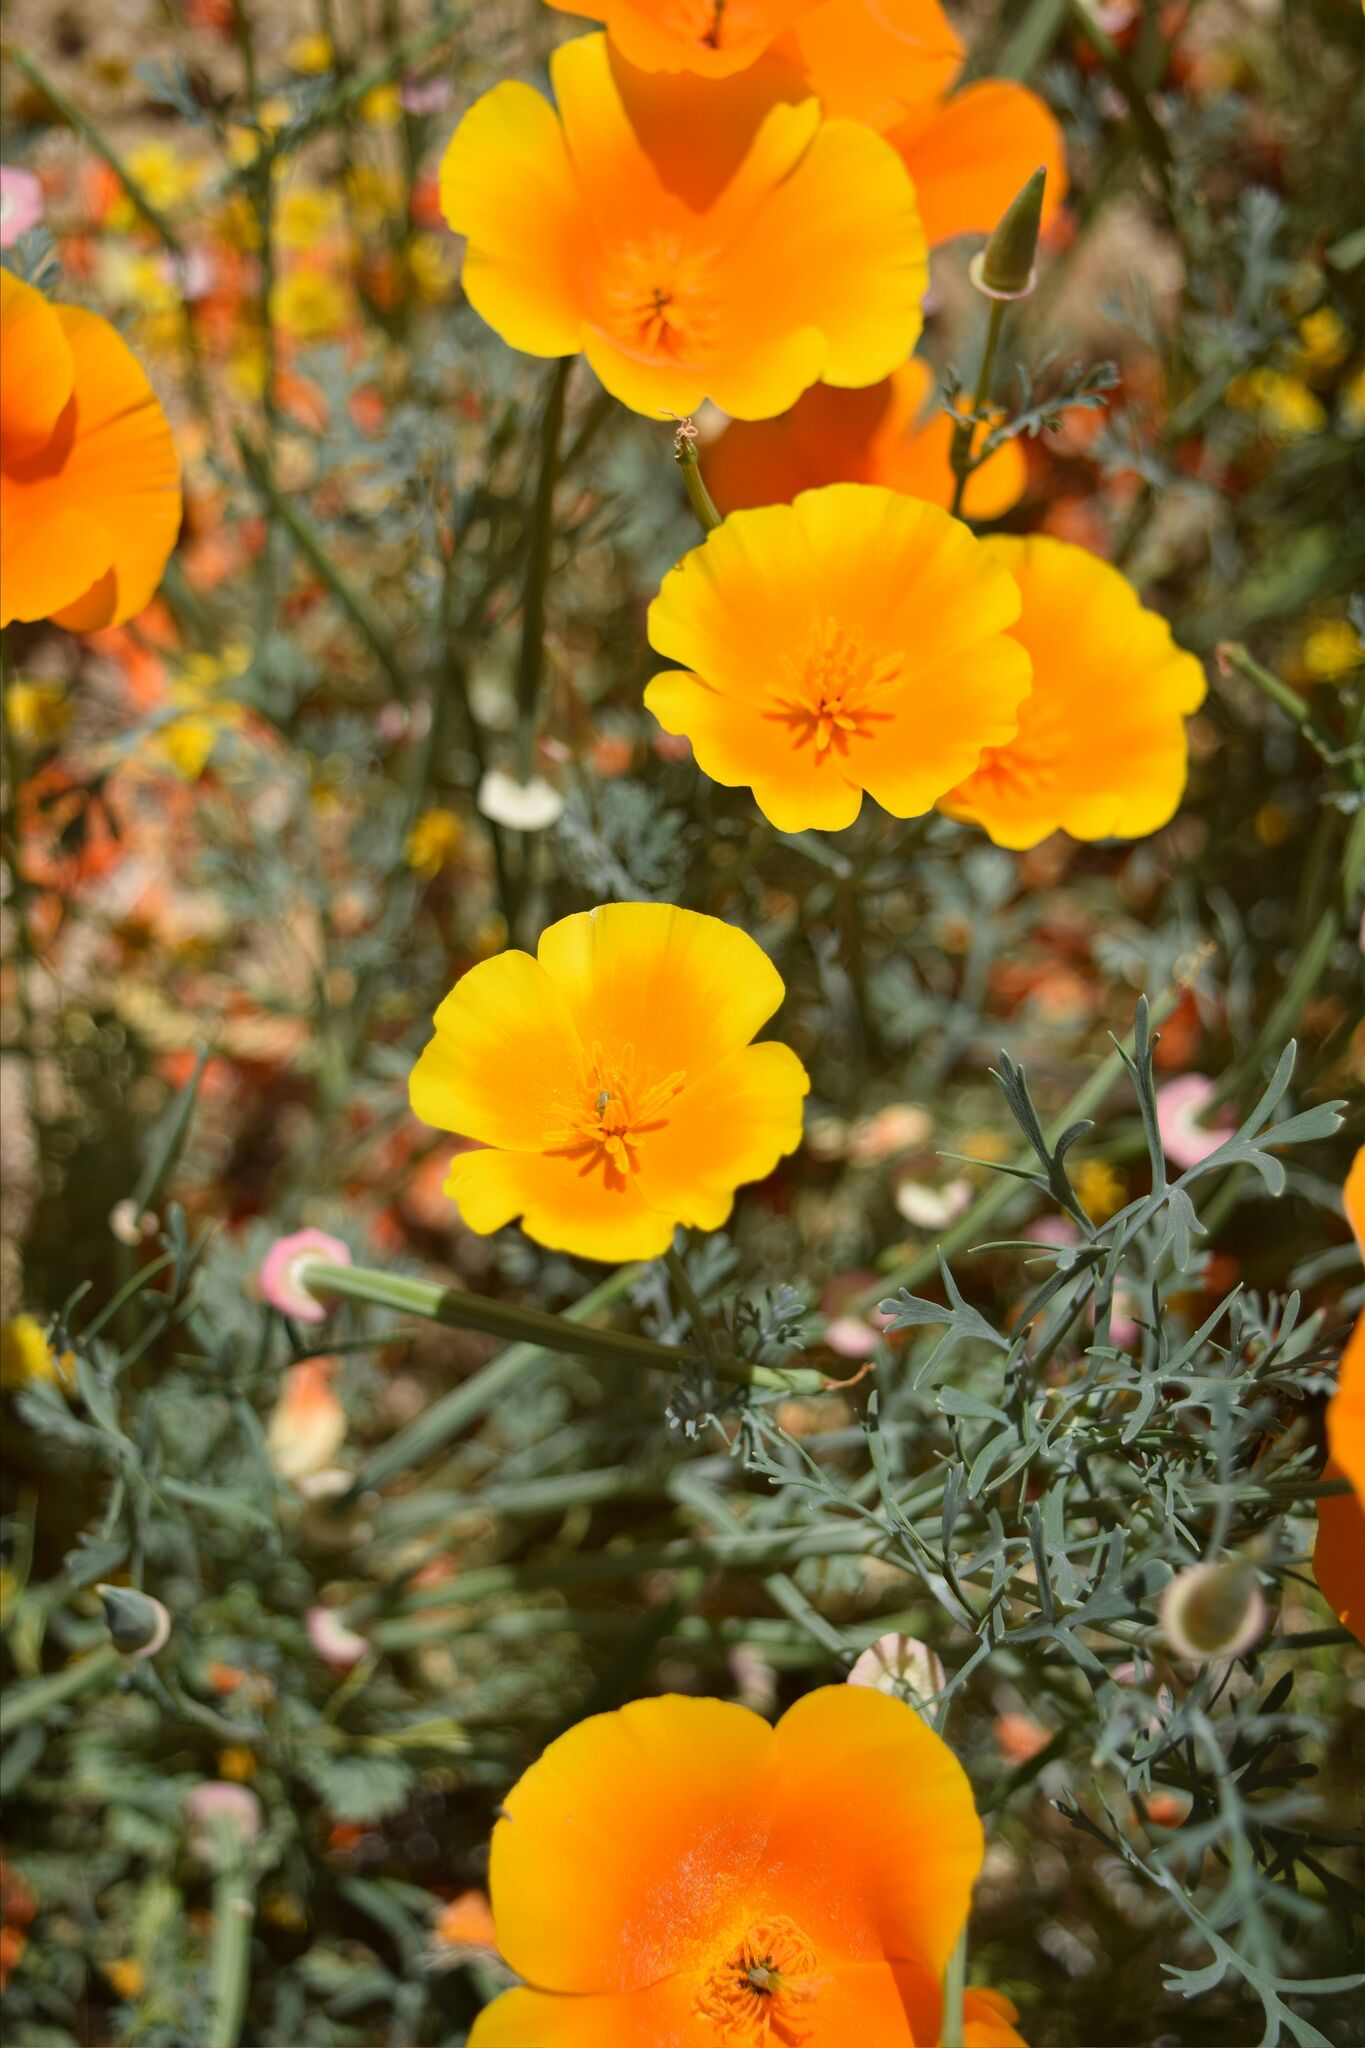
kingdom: Plantae
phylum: Tracheophyta
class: Magnoliopsida
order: Ranunculales
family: Papaveraceae
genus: Eschscholzia
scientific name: Eschscholzia californica
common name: California poppy
